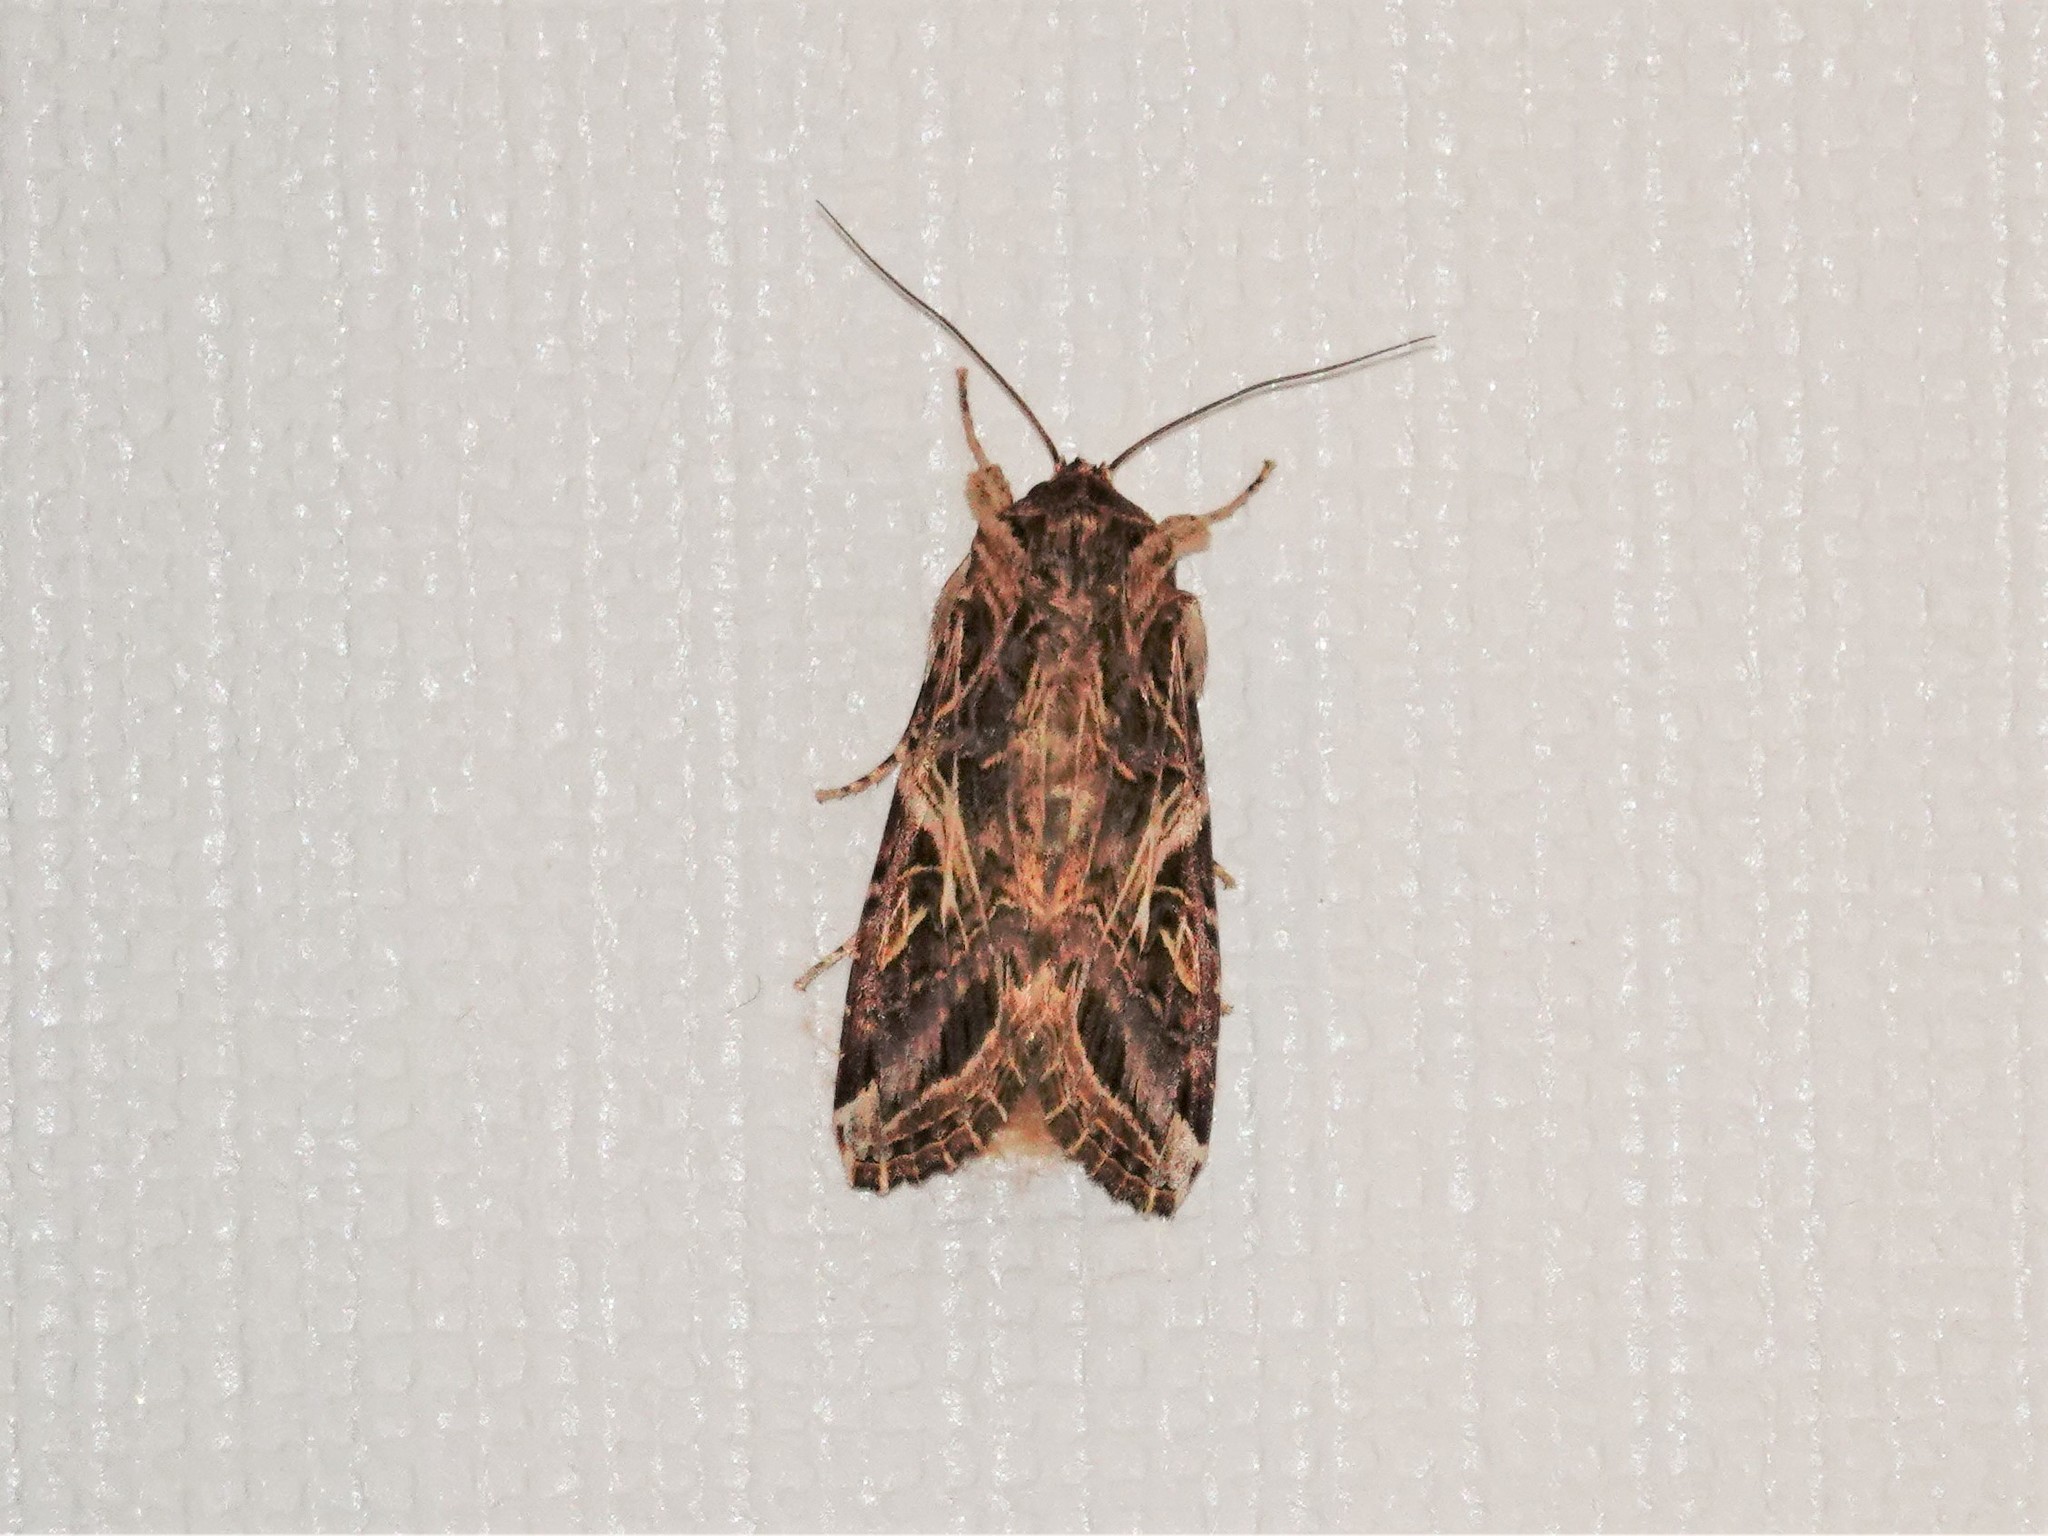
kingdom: Animalia
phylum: Arthropoda
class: Insecta
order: Lepidoptera
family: Noctuidae
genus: Spodoptera
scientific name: Spodoptera litura
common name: Asian cotton leafworm
